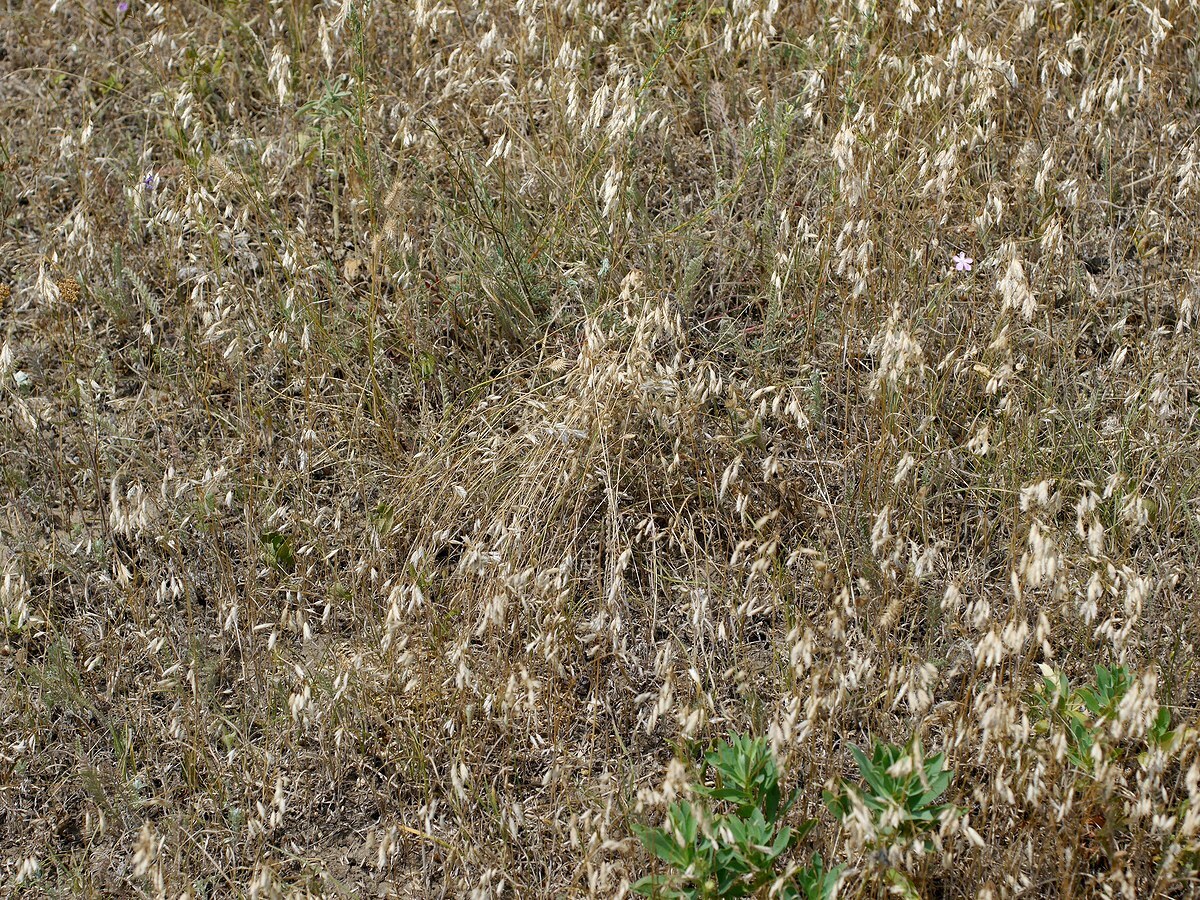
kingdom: Animalia
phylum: Arthropoda
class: Arachnida
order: Araneae
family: Theridiidae
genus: Latrodectus
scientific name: Latrodectus tredecimguttatus
